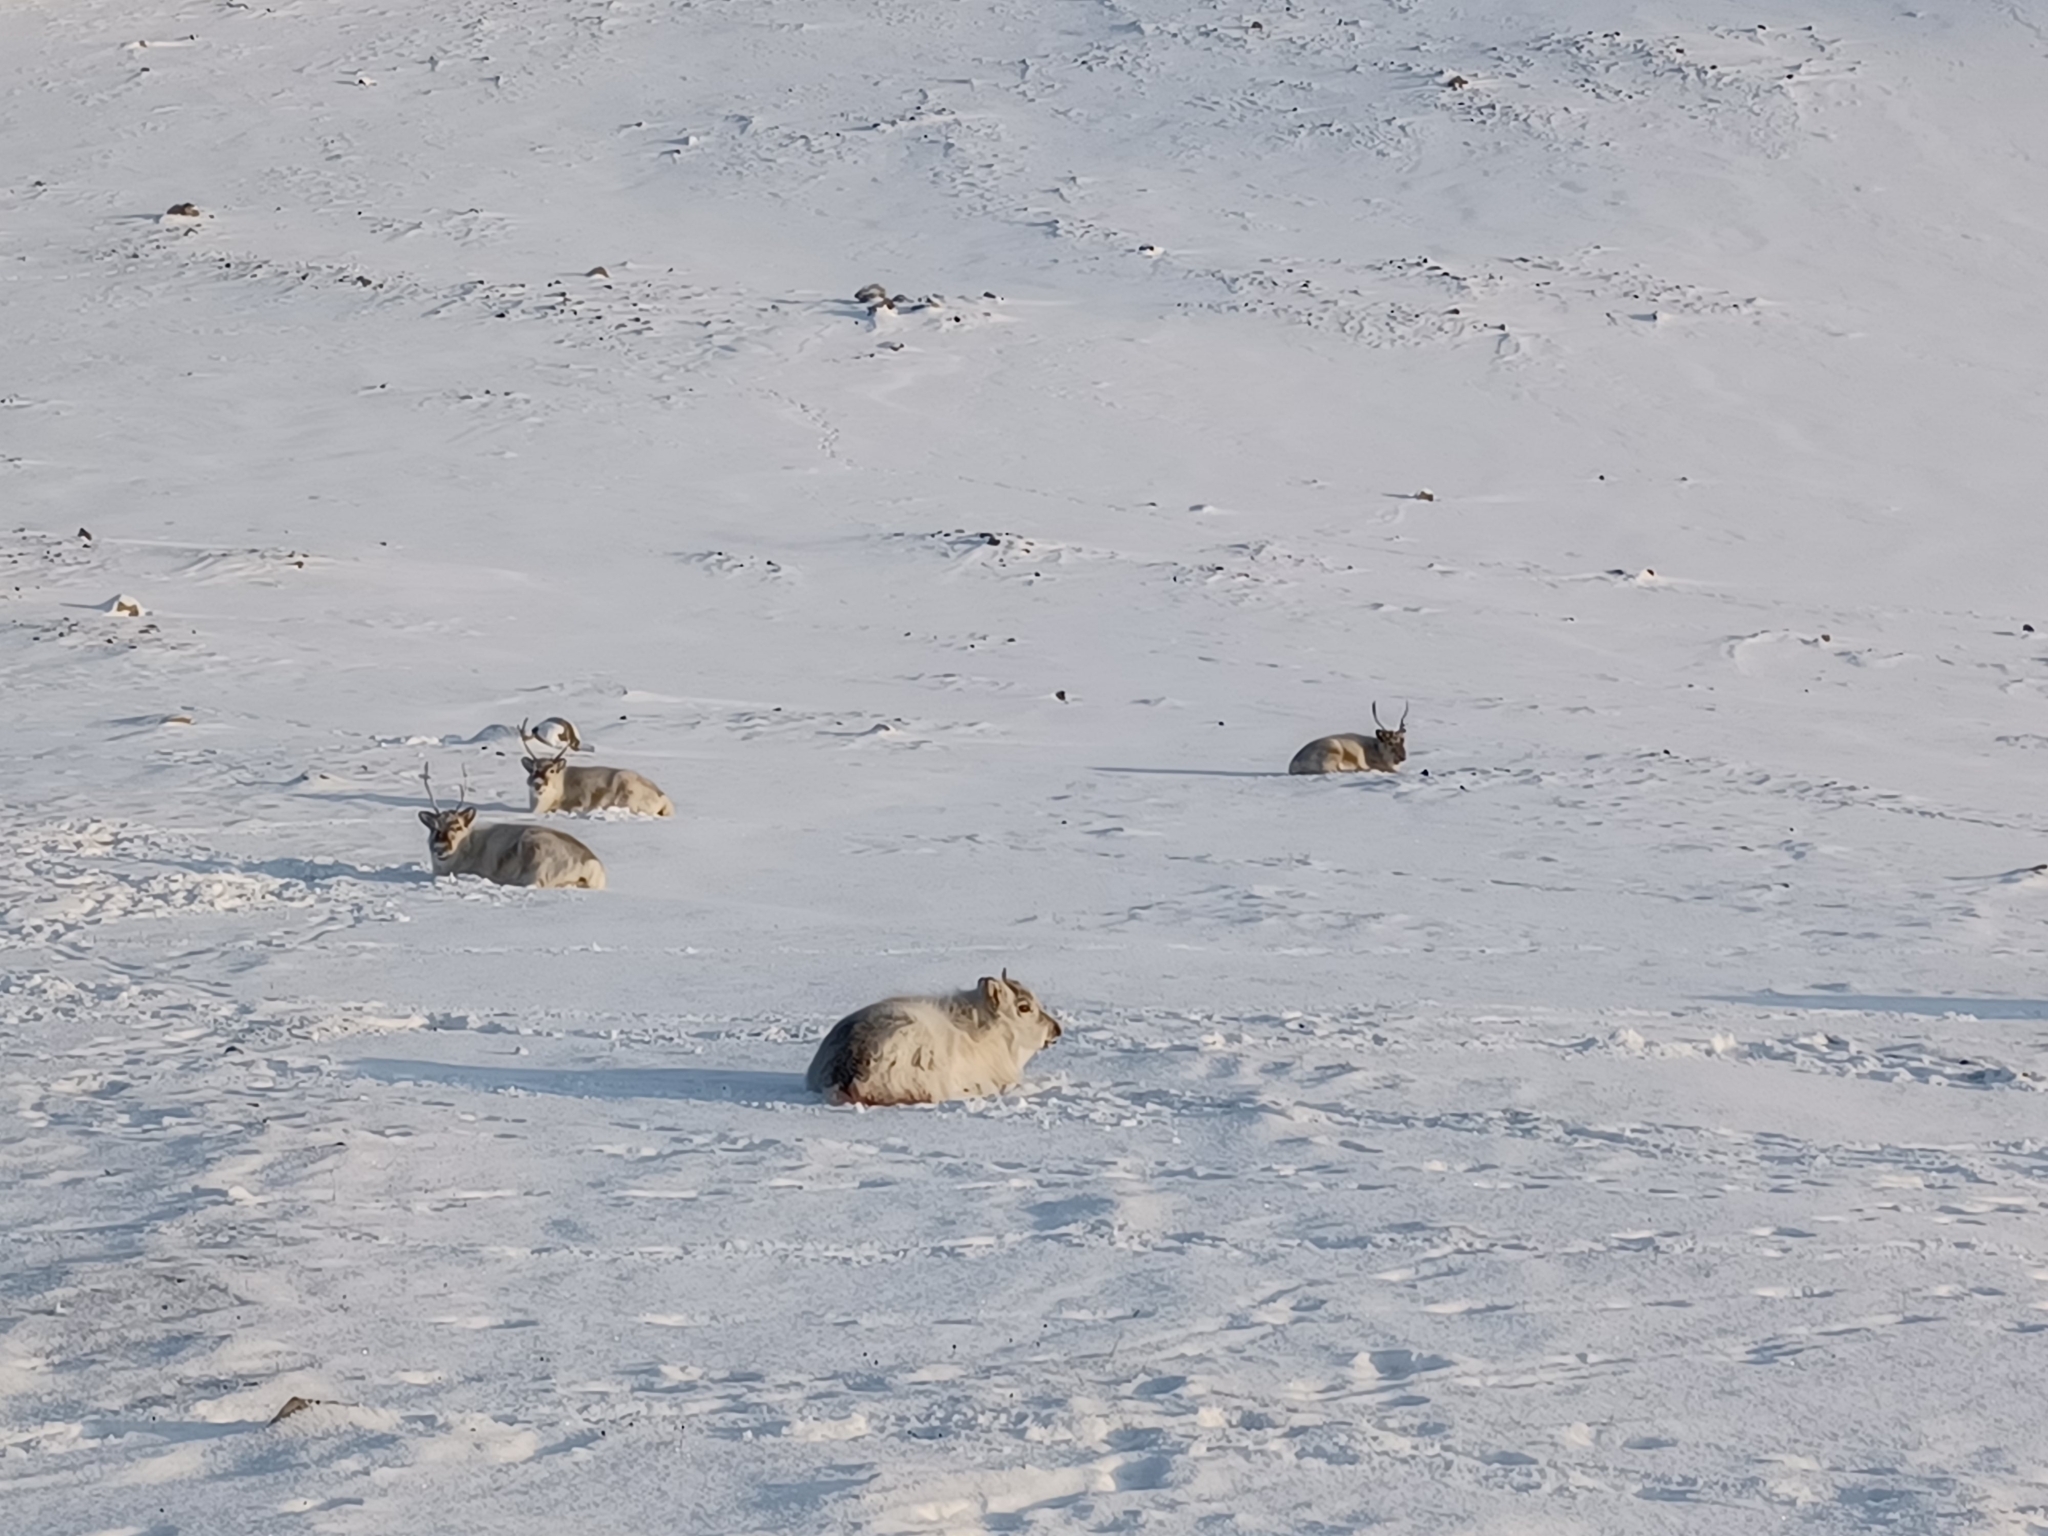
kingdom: Animalia
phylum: Chordata
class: Mammalia
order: Artiodactyla
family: Cervidae
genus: Rangifer
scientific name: Rangifer tarandus
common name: Reindeer
